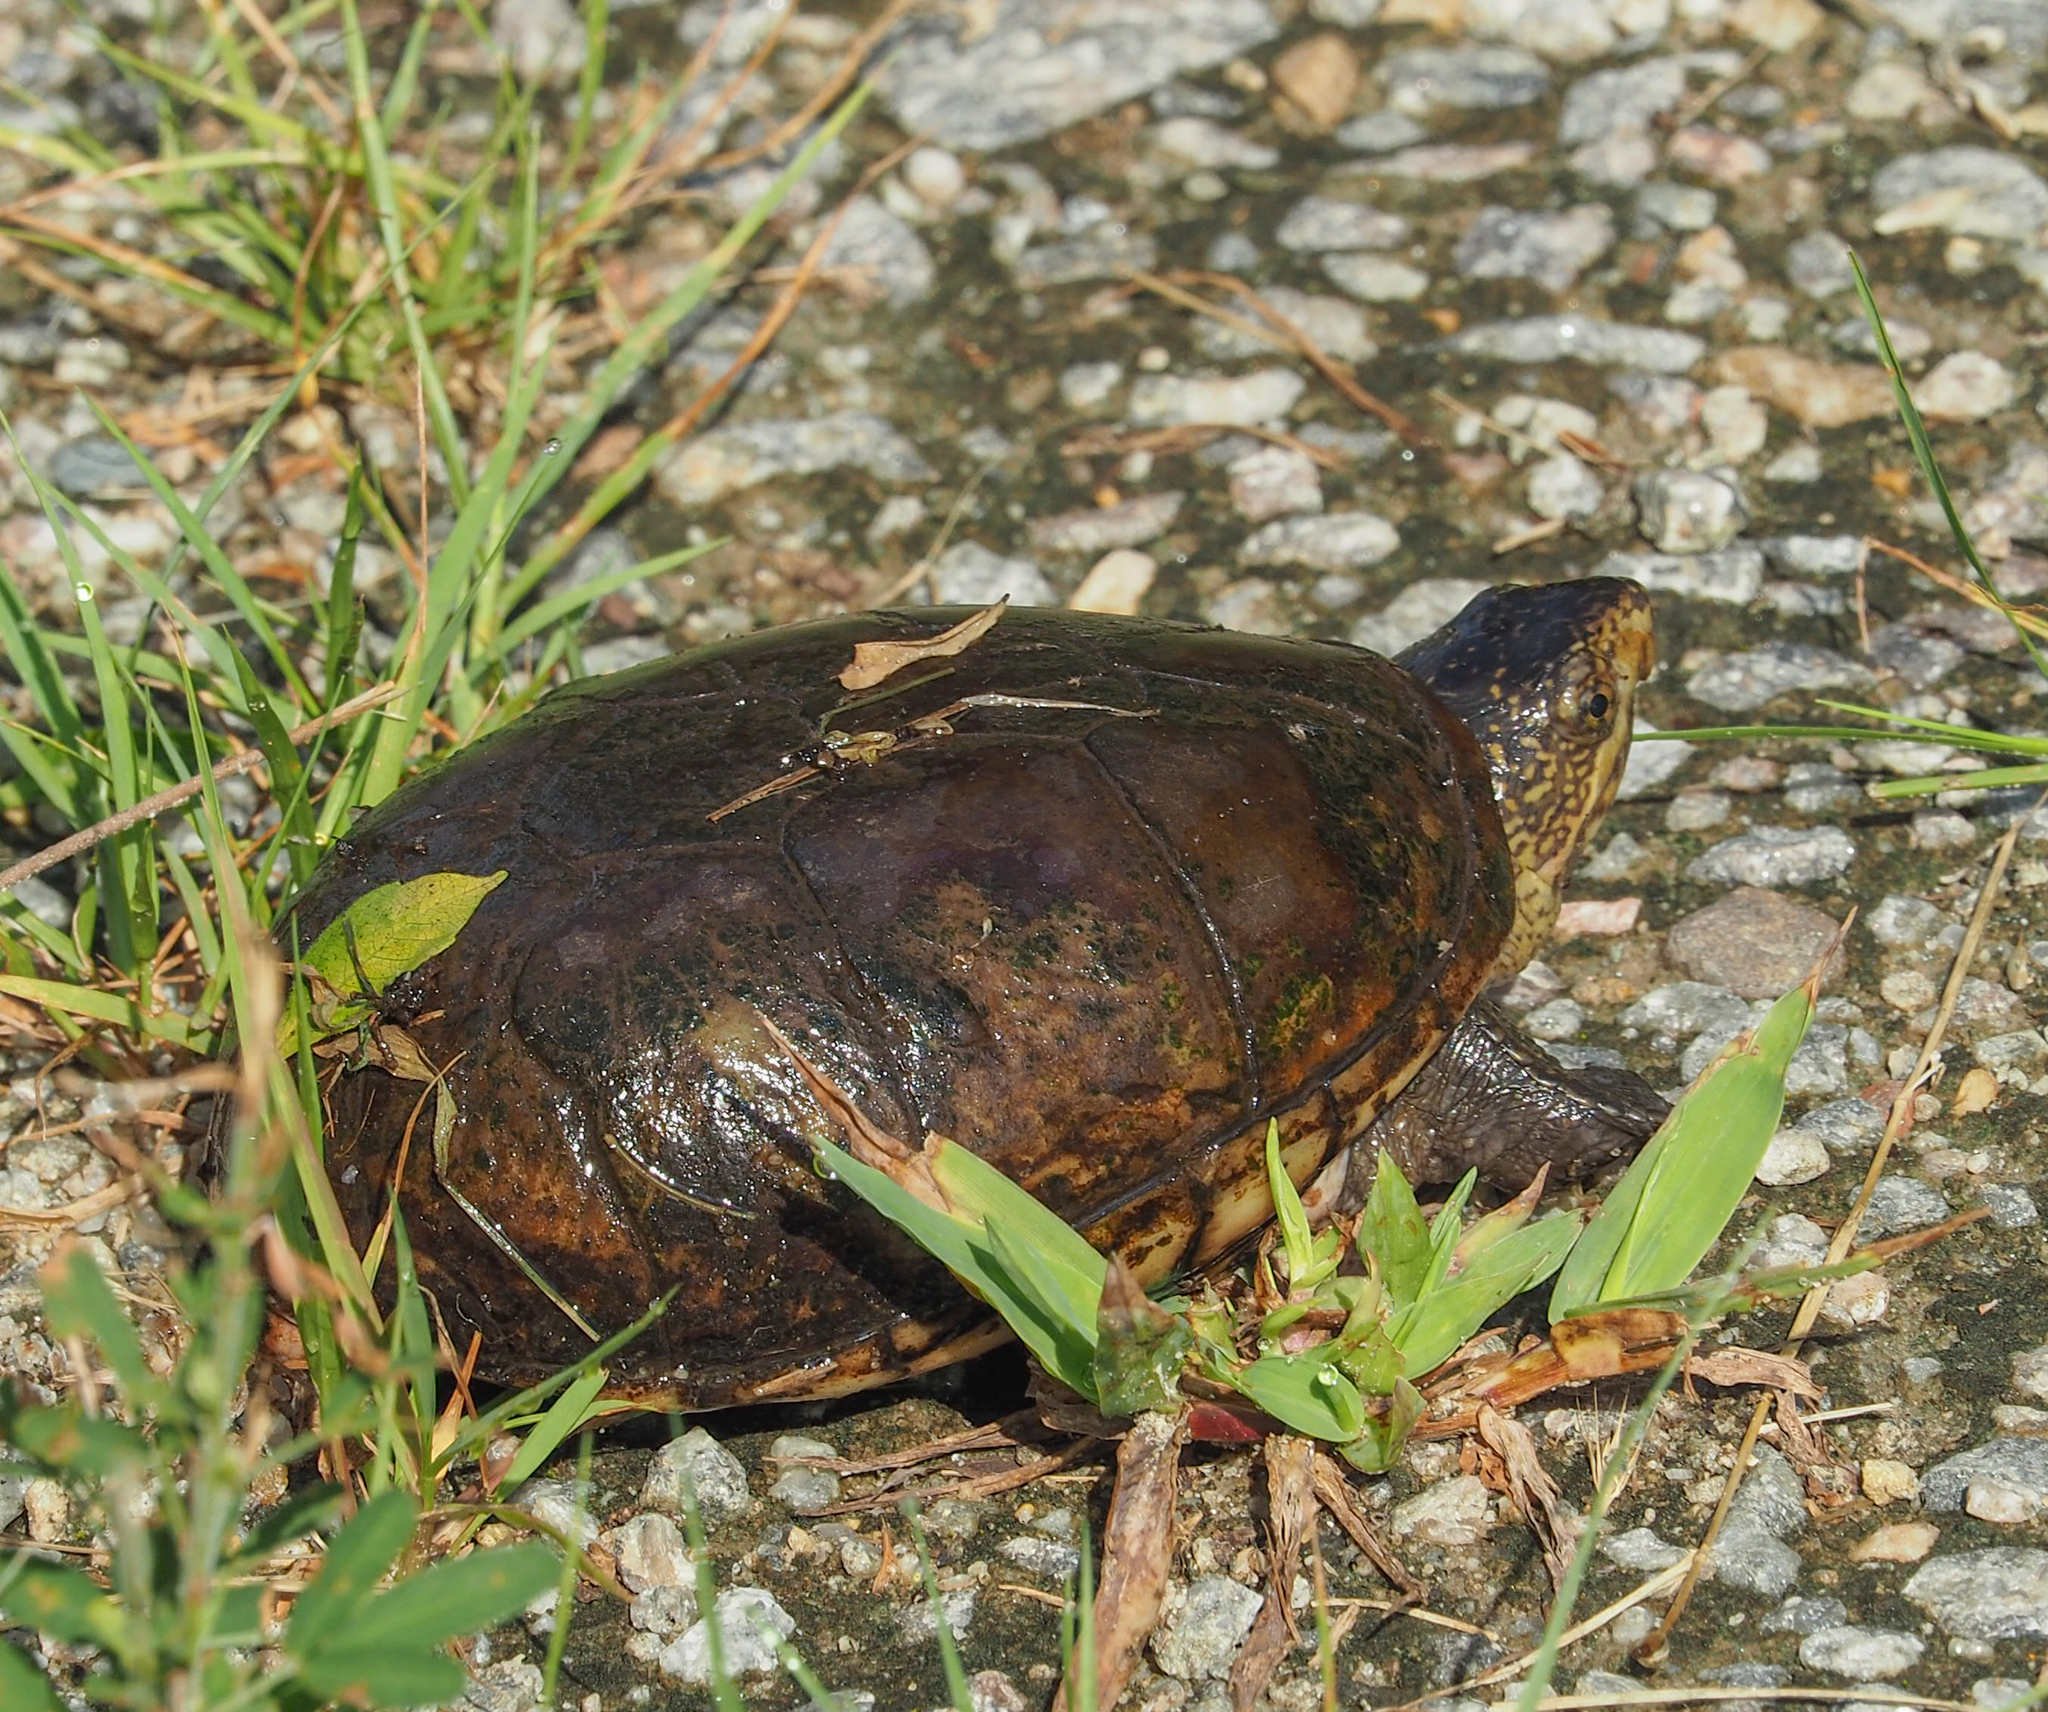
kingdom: Animalia
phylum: Chordata
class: Testudines
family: Kinosternidae
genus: Kinosternon
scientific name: Kinosternon subrubrum
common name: Eastern mud turtle
